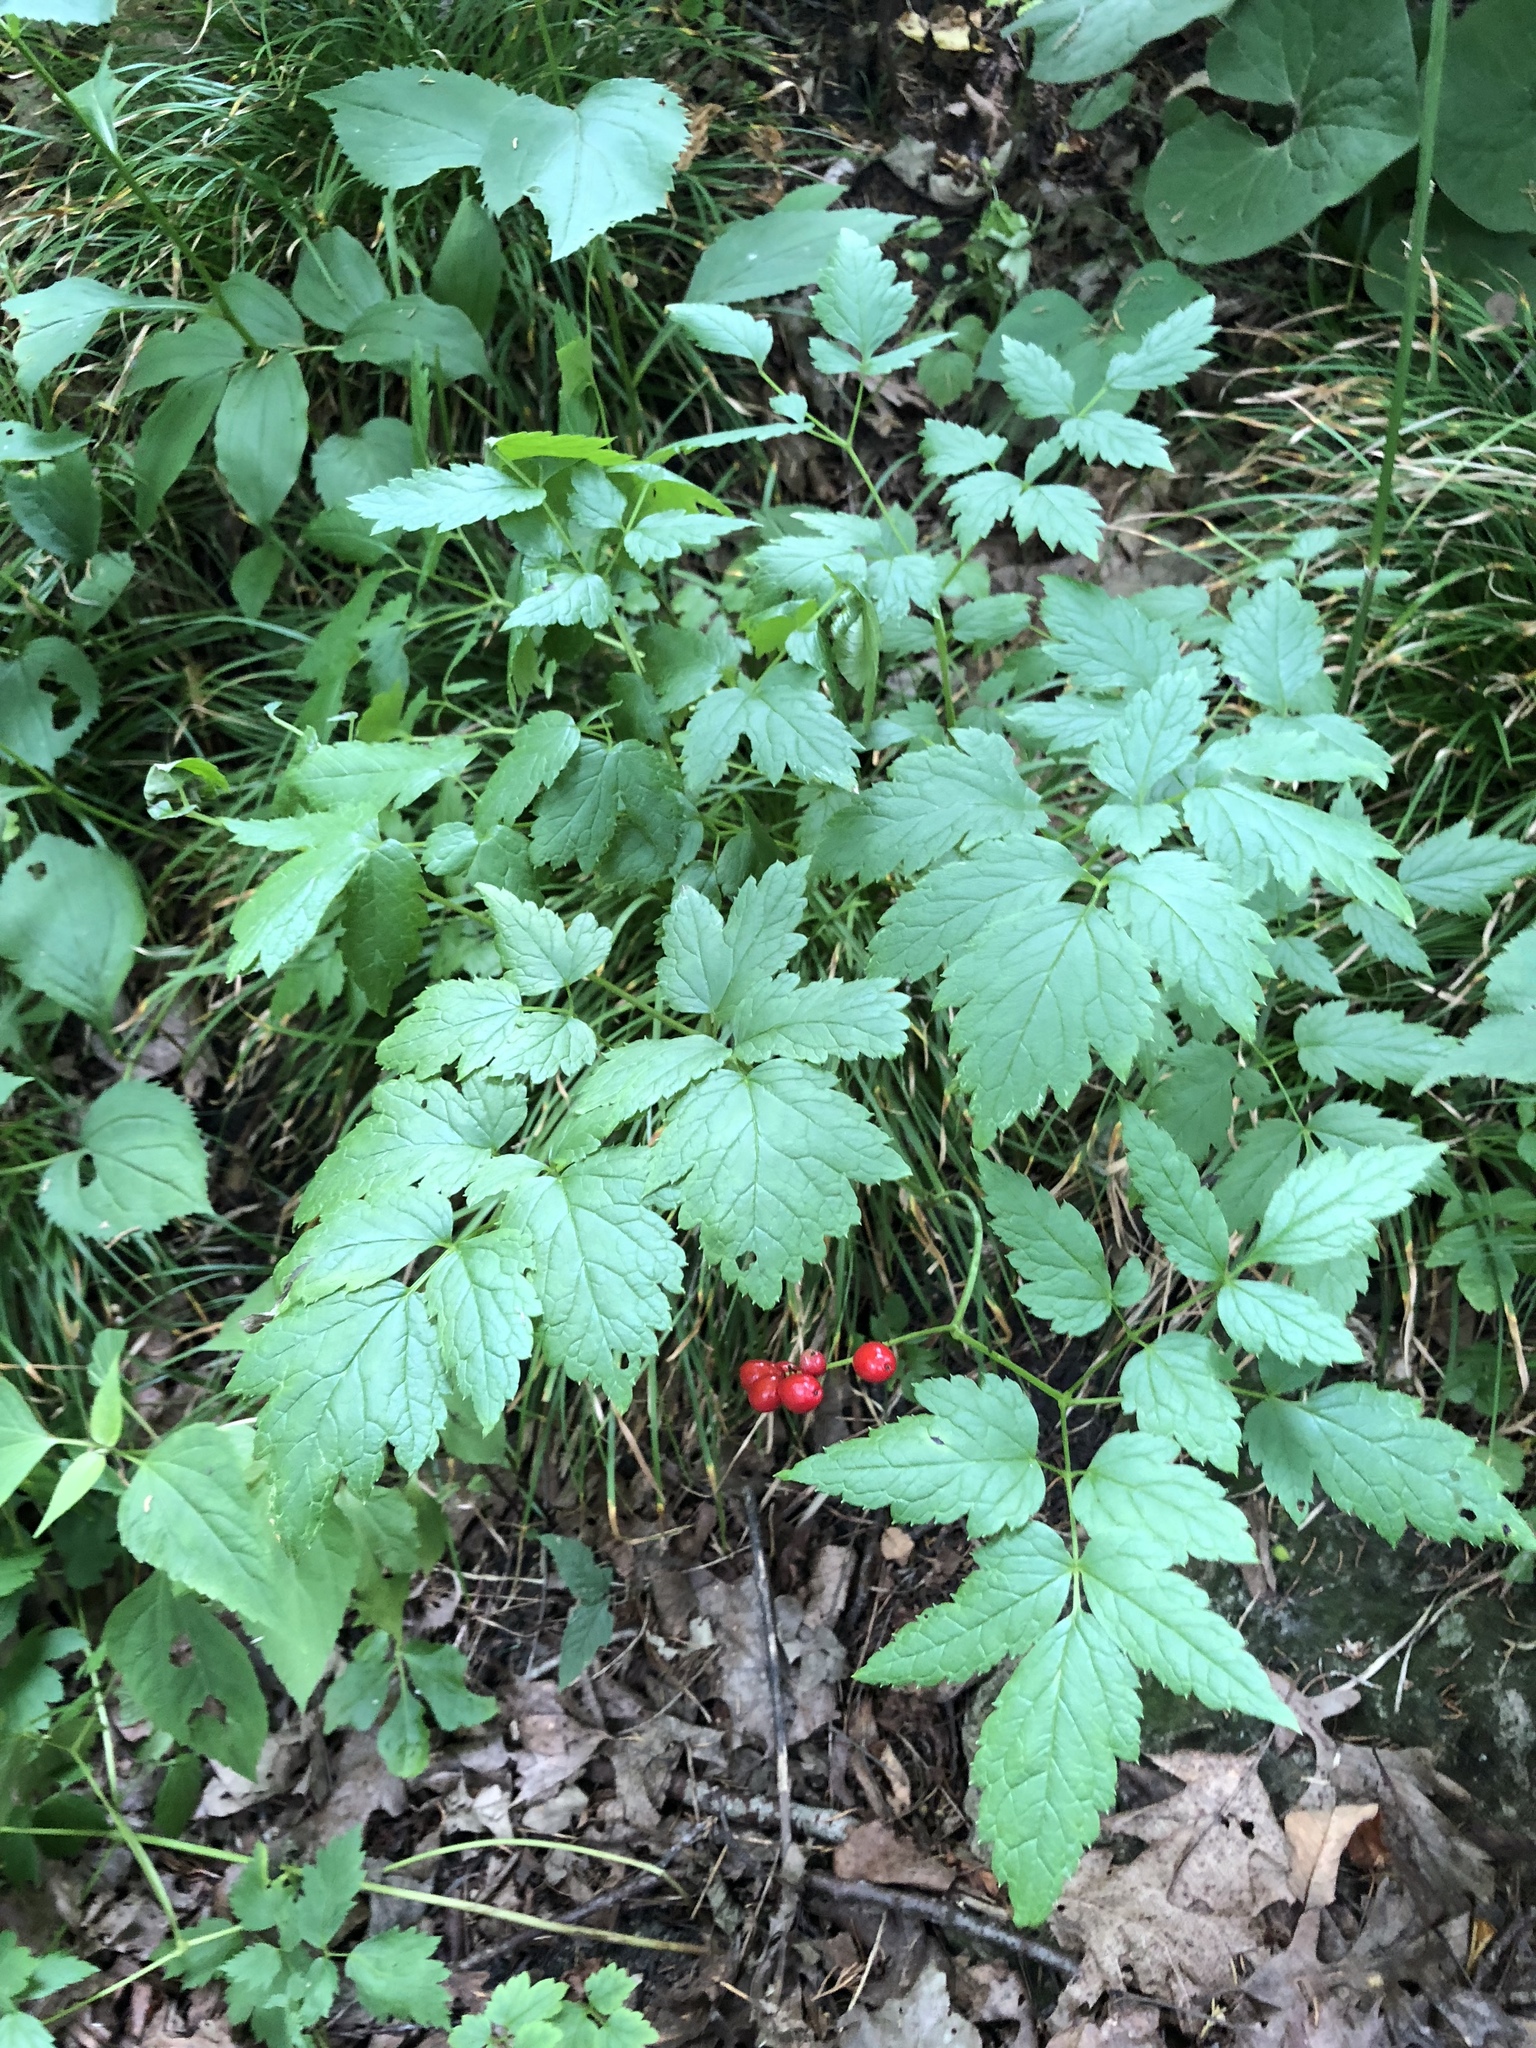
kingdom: Plantae
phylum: Tracheophyta
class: Magnoliopsida
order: Ranunculales
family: Ranunculaceae
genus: Actaea
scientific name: Actaea rubra
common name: Red baneberry
